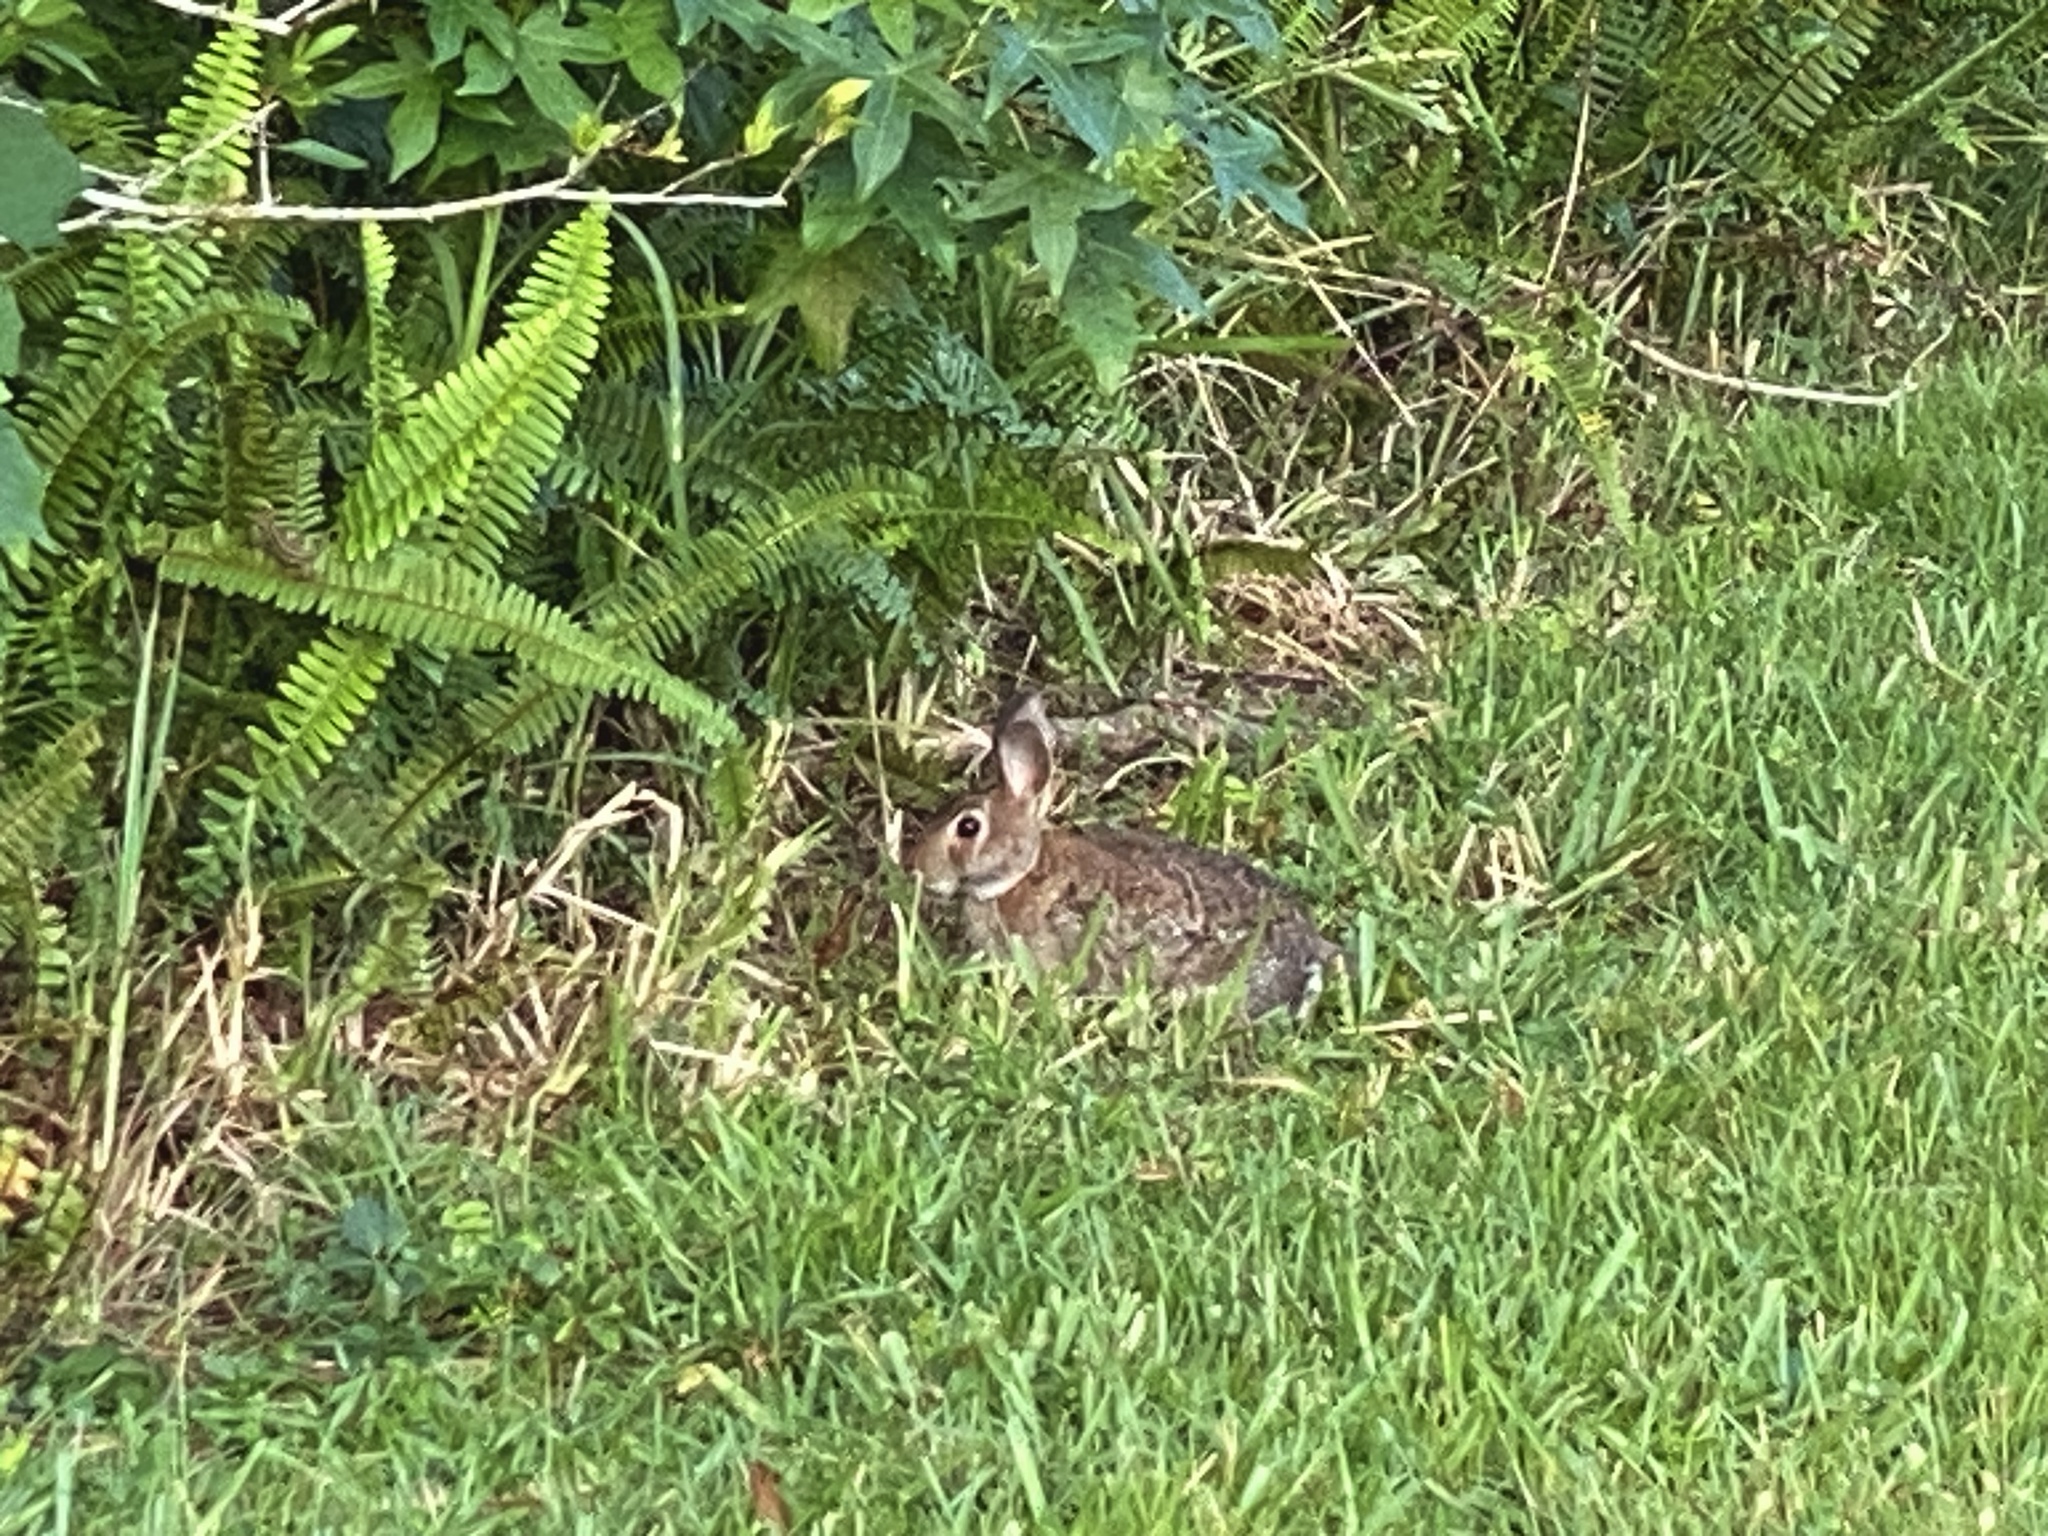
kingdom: Animalia
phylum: Chordata
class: Mammalia
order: Lagomorpha
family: Leporidae
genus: Sylvilagus
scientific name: Sylvilagus floridanus
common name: Eastern cottontail
